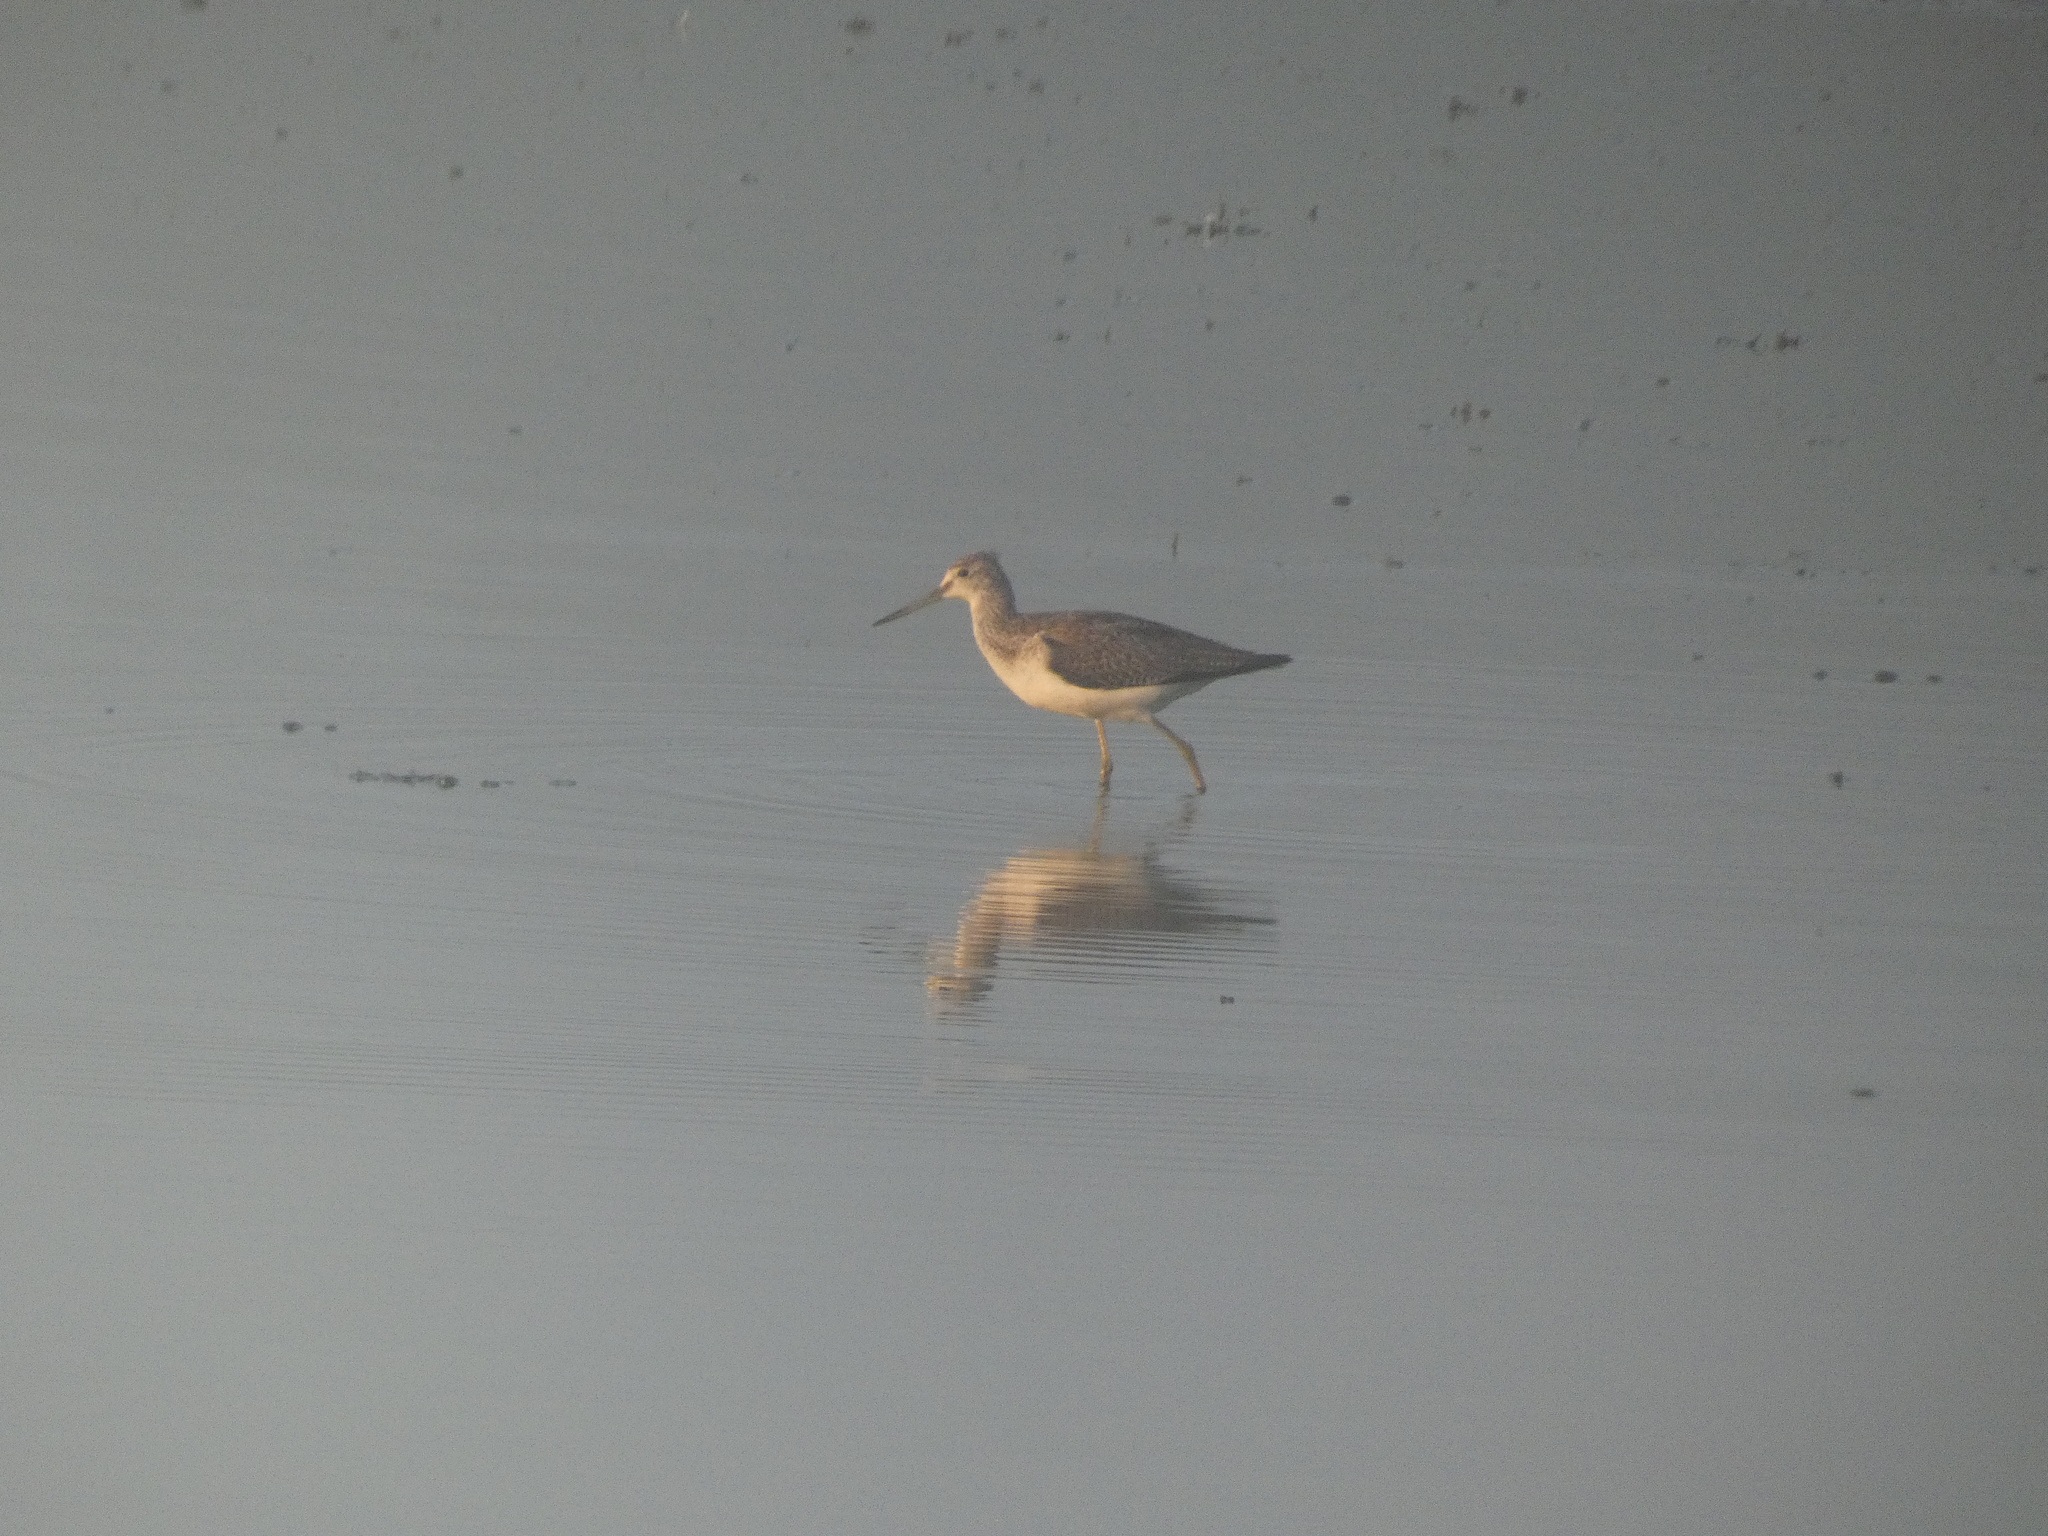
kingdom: Animalia
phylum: Chordata
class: Aves
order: Charadriiformes
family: Scolopacidae
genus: Tringa
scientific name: Tringa nebularia
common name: Common greenshank
